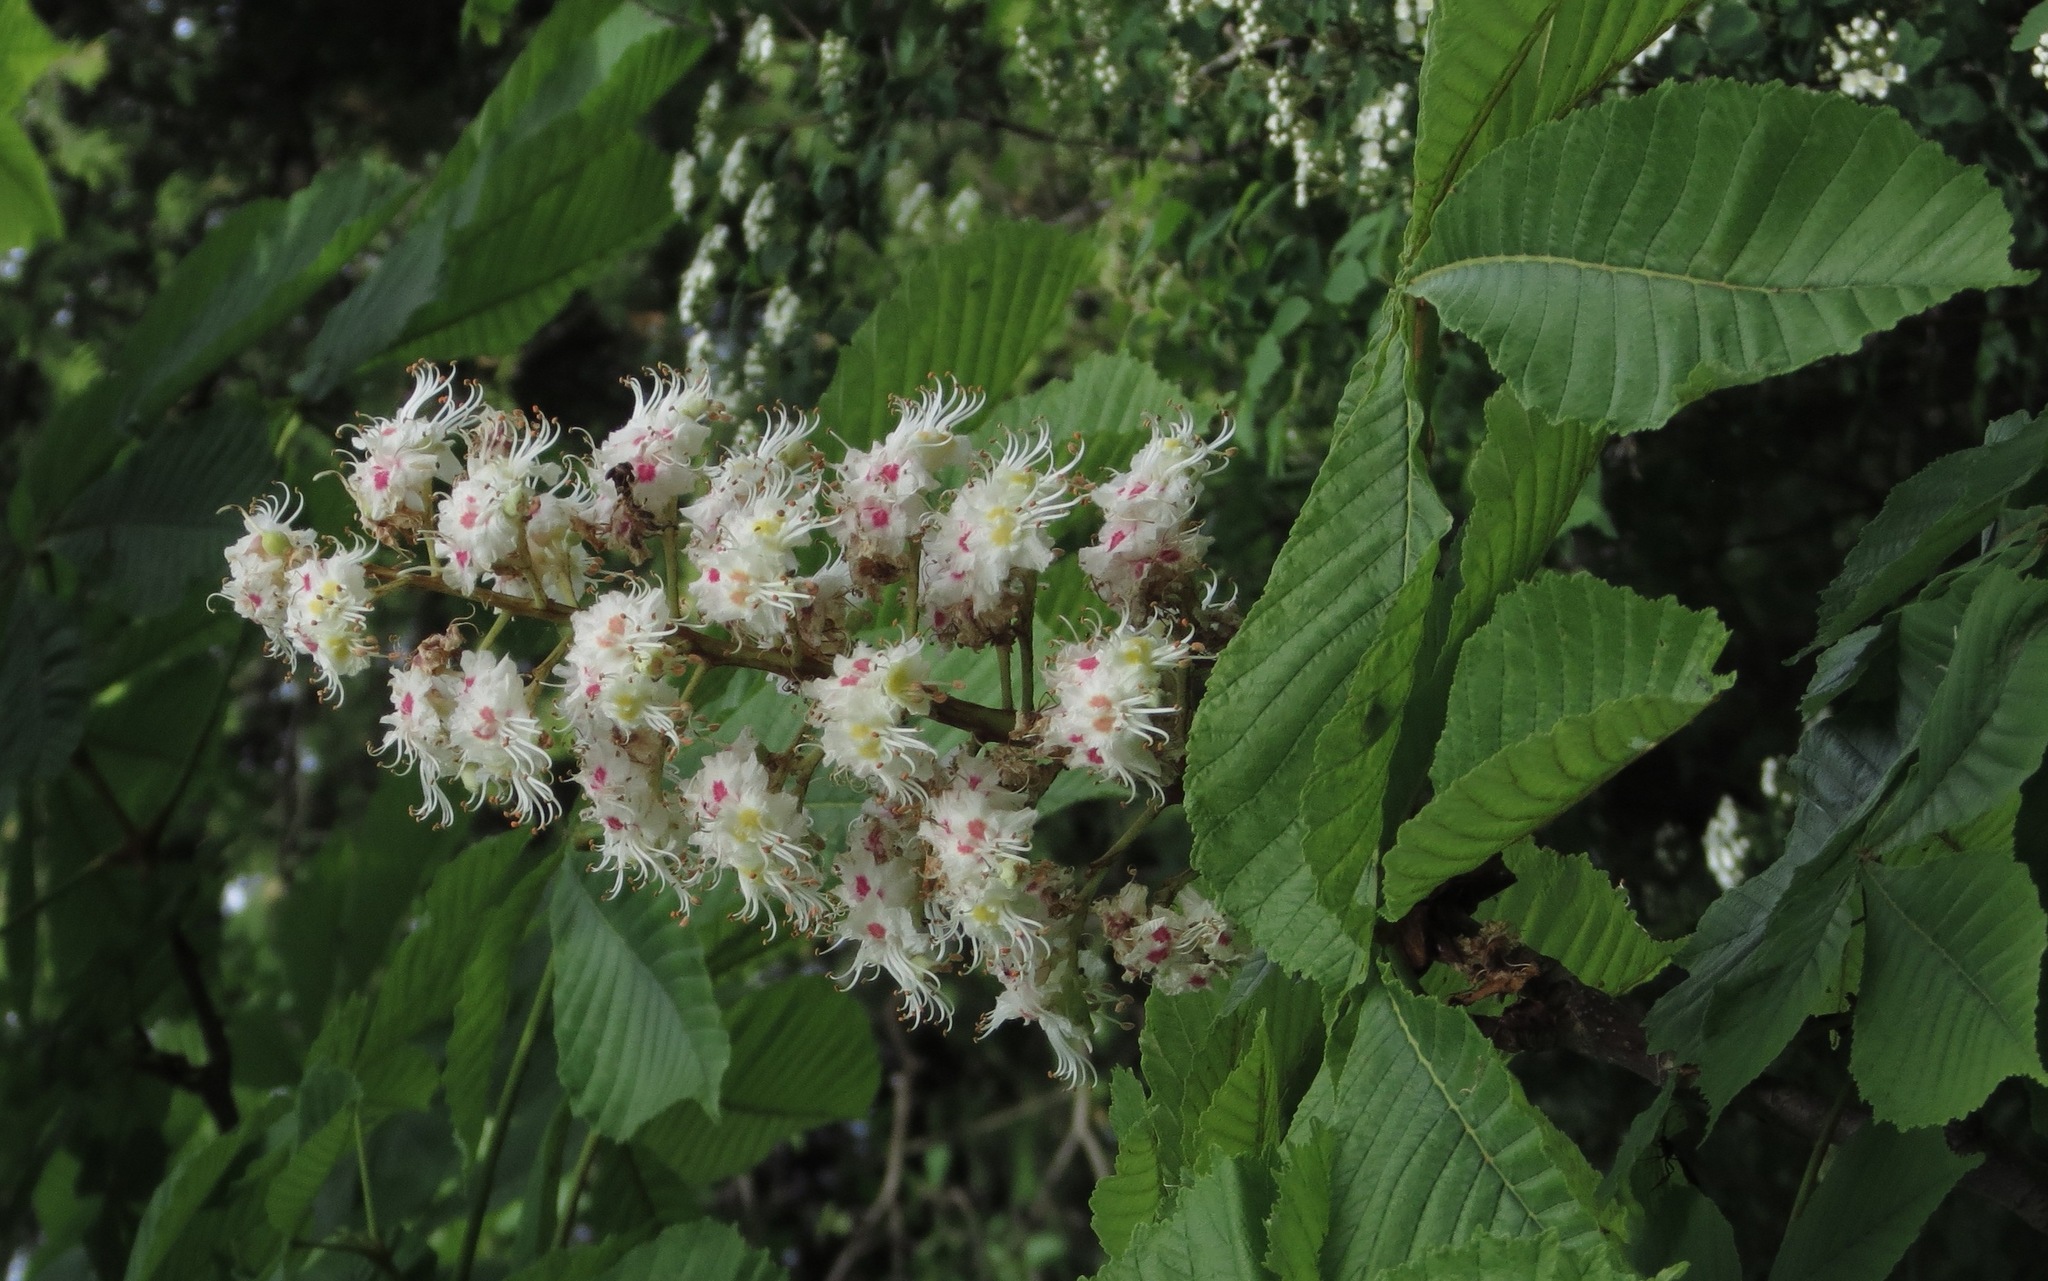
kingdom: Plantae
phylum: Tracheophyta
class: Magnoliopsida
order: Sapindales
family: Sapindaceae
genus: Aesculus
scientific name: Aesculus hippocastanum
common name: Horse-chestnut
